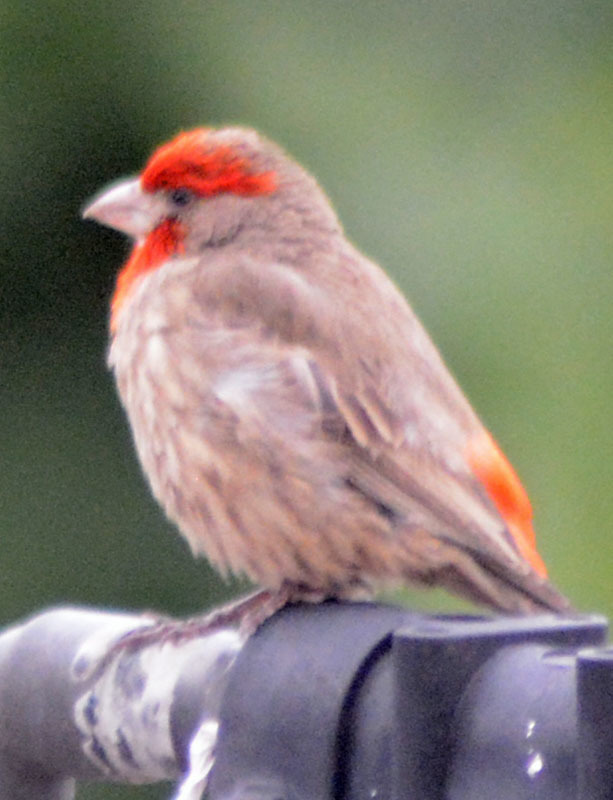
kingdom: Animalia
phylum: Chordata
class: Aves
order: Passeriformes
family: Fringillidae
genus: Haemorhous
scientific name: Haemorhous mexicanus
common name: House finch
